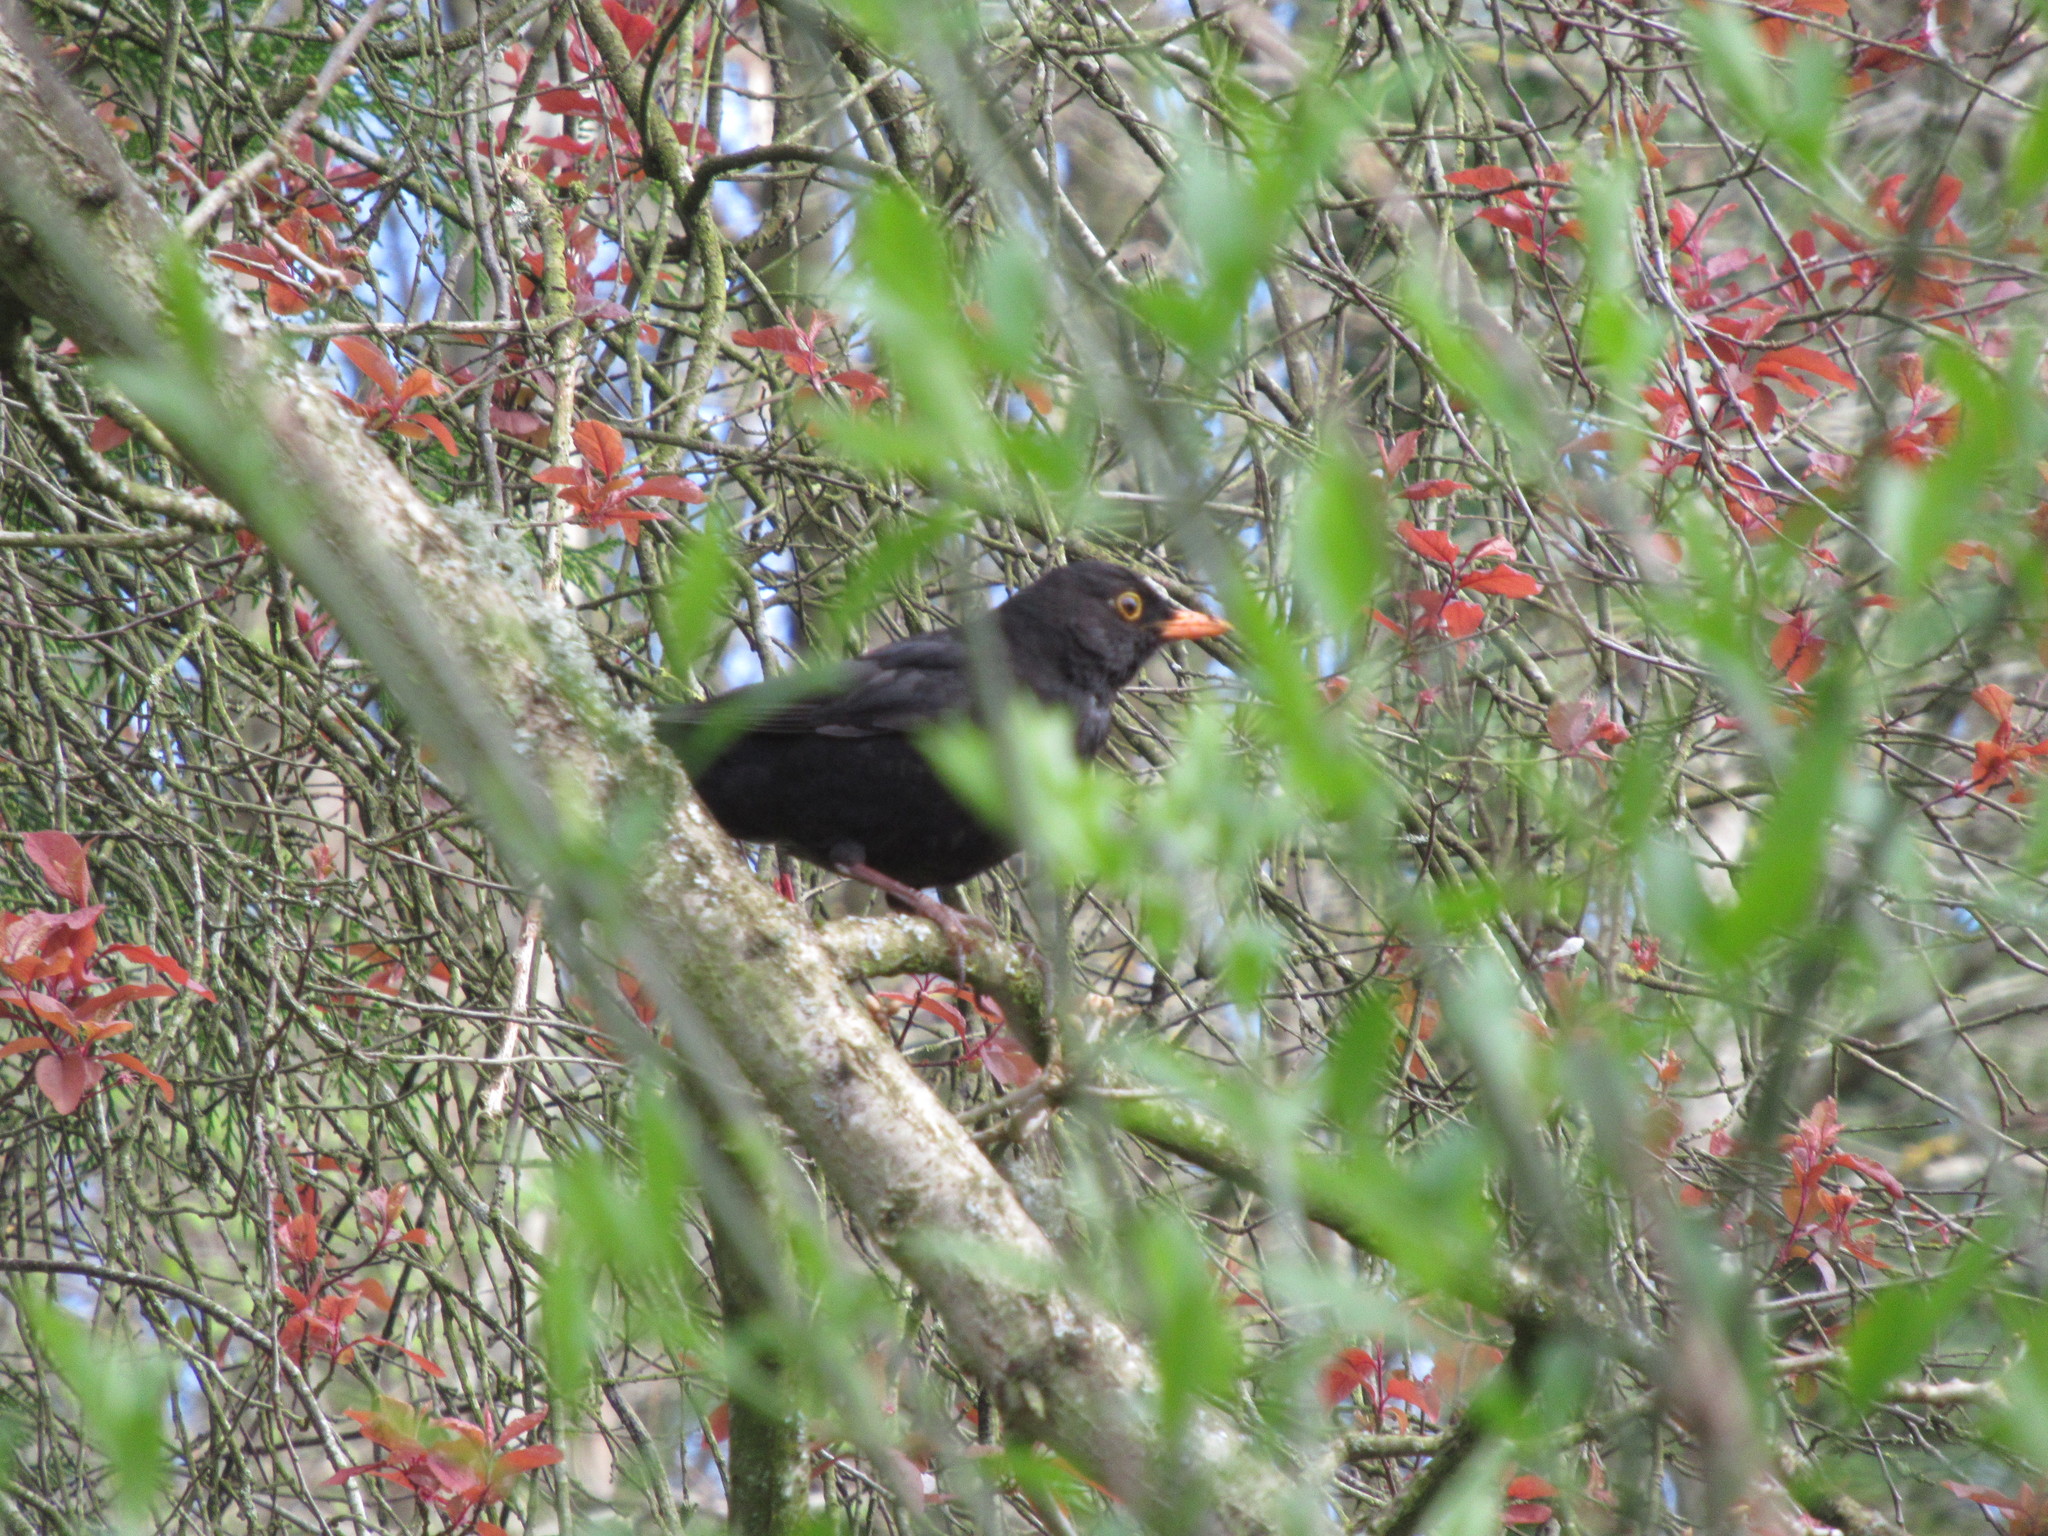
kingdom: Animalia
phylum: Chordata
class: Aves
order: Passeriformes
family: Turdidae
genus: Turdus
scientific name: Turdus merula
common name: Common blackbird
